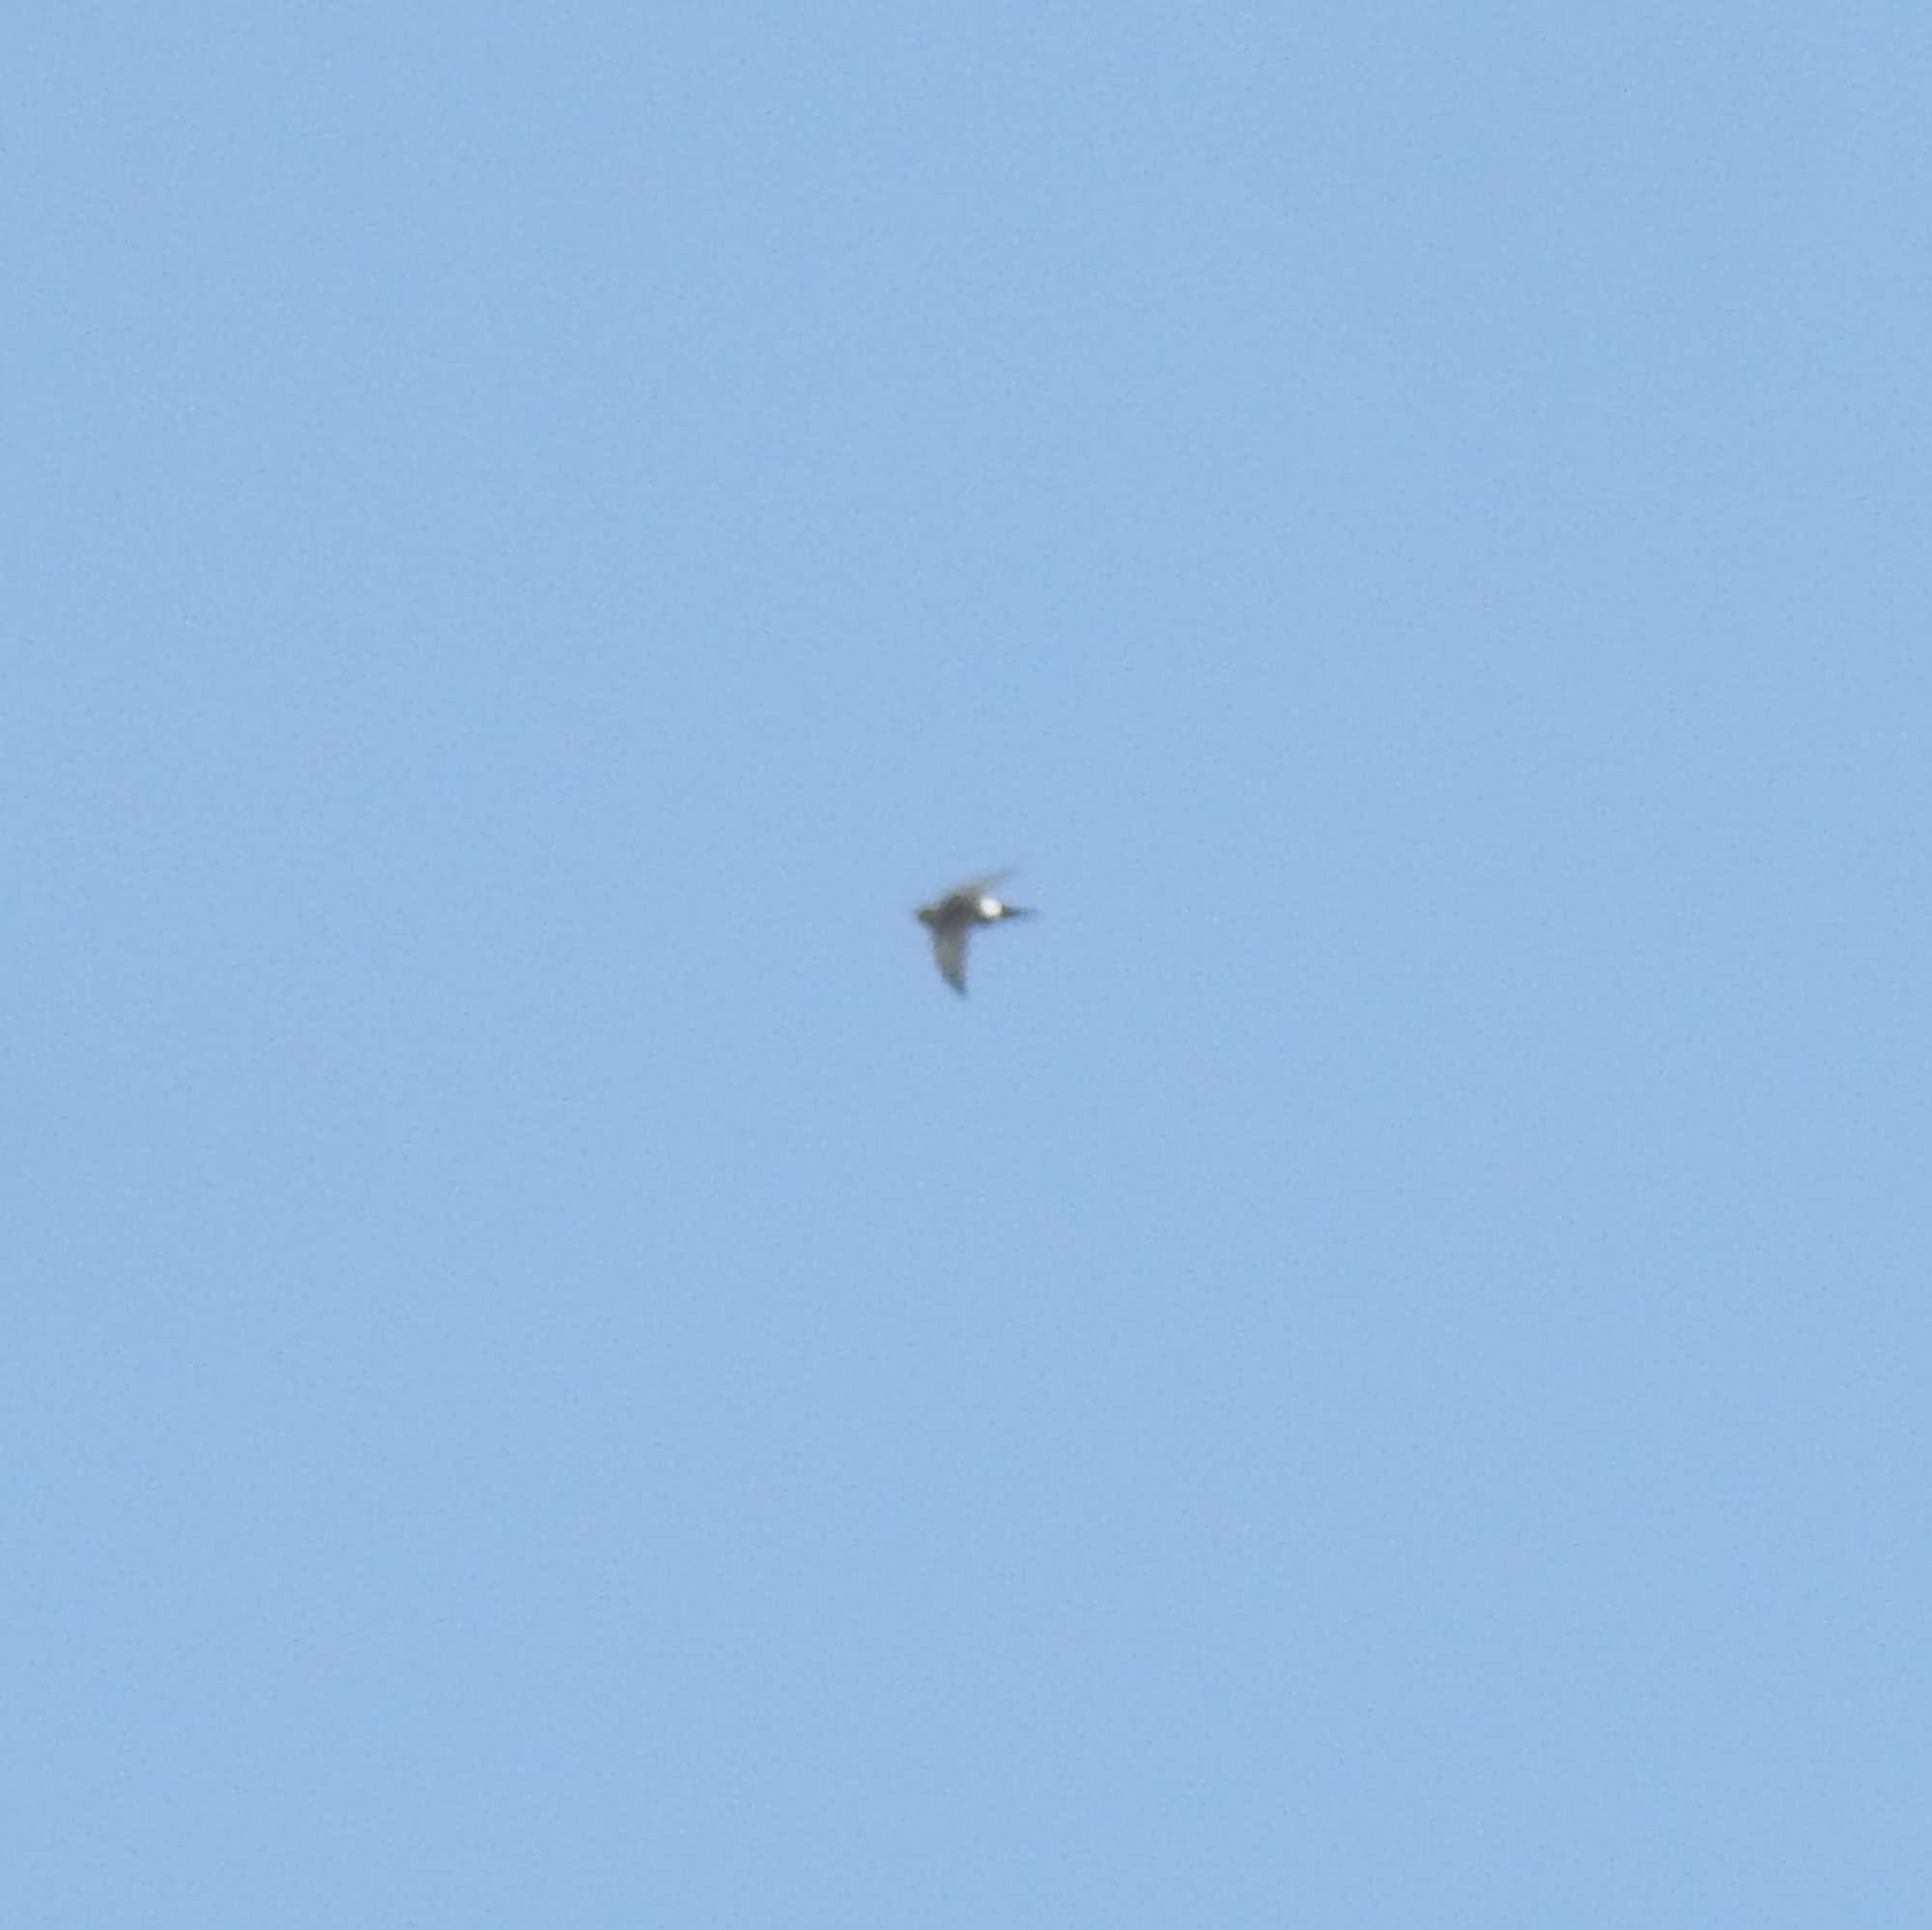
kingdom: Animalia
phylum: Chordata
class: Aves
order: Apodiformes
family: Apodidae
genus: Apus
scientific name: Apus affinis
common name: Little swift
